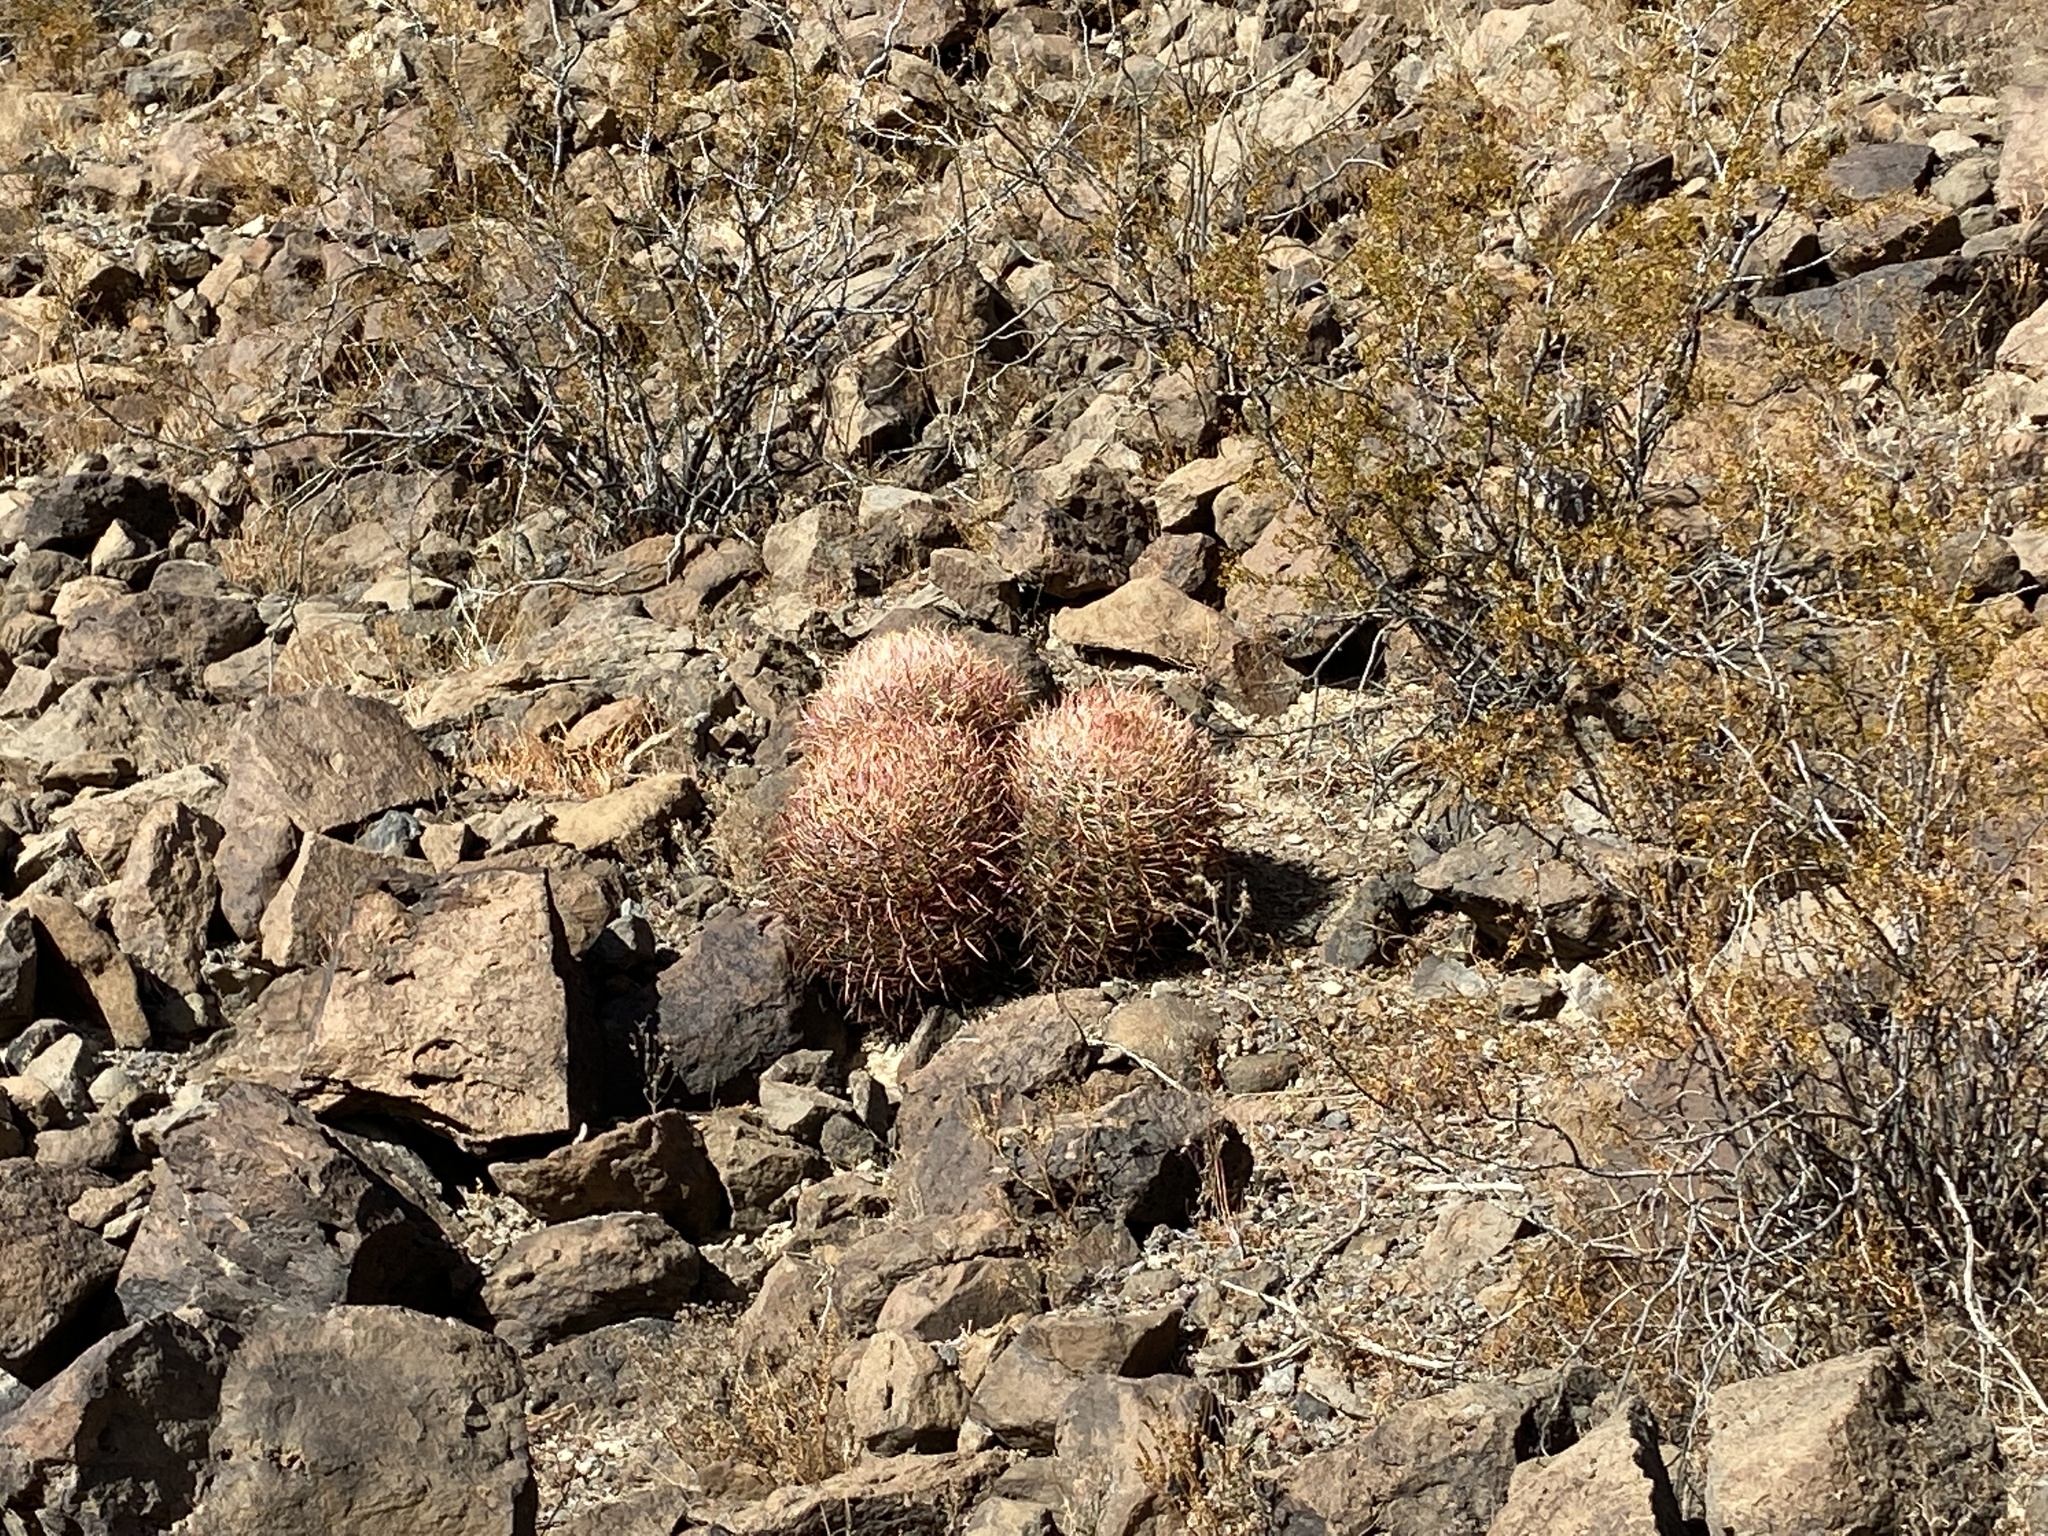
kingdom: Plantae
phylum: Tracheophyta
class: Magnoliopsida
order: Caryophyllales
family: Cactaceae
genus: Ferocactus
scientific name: Ferocactus cylindraceus
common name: California barrel cactus
